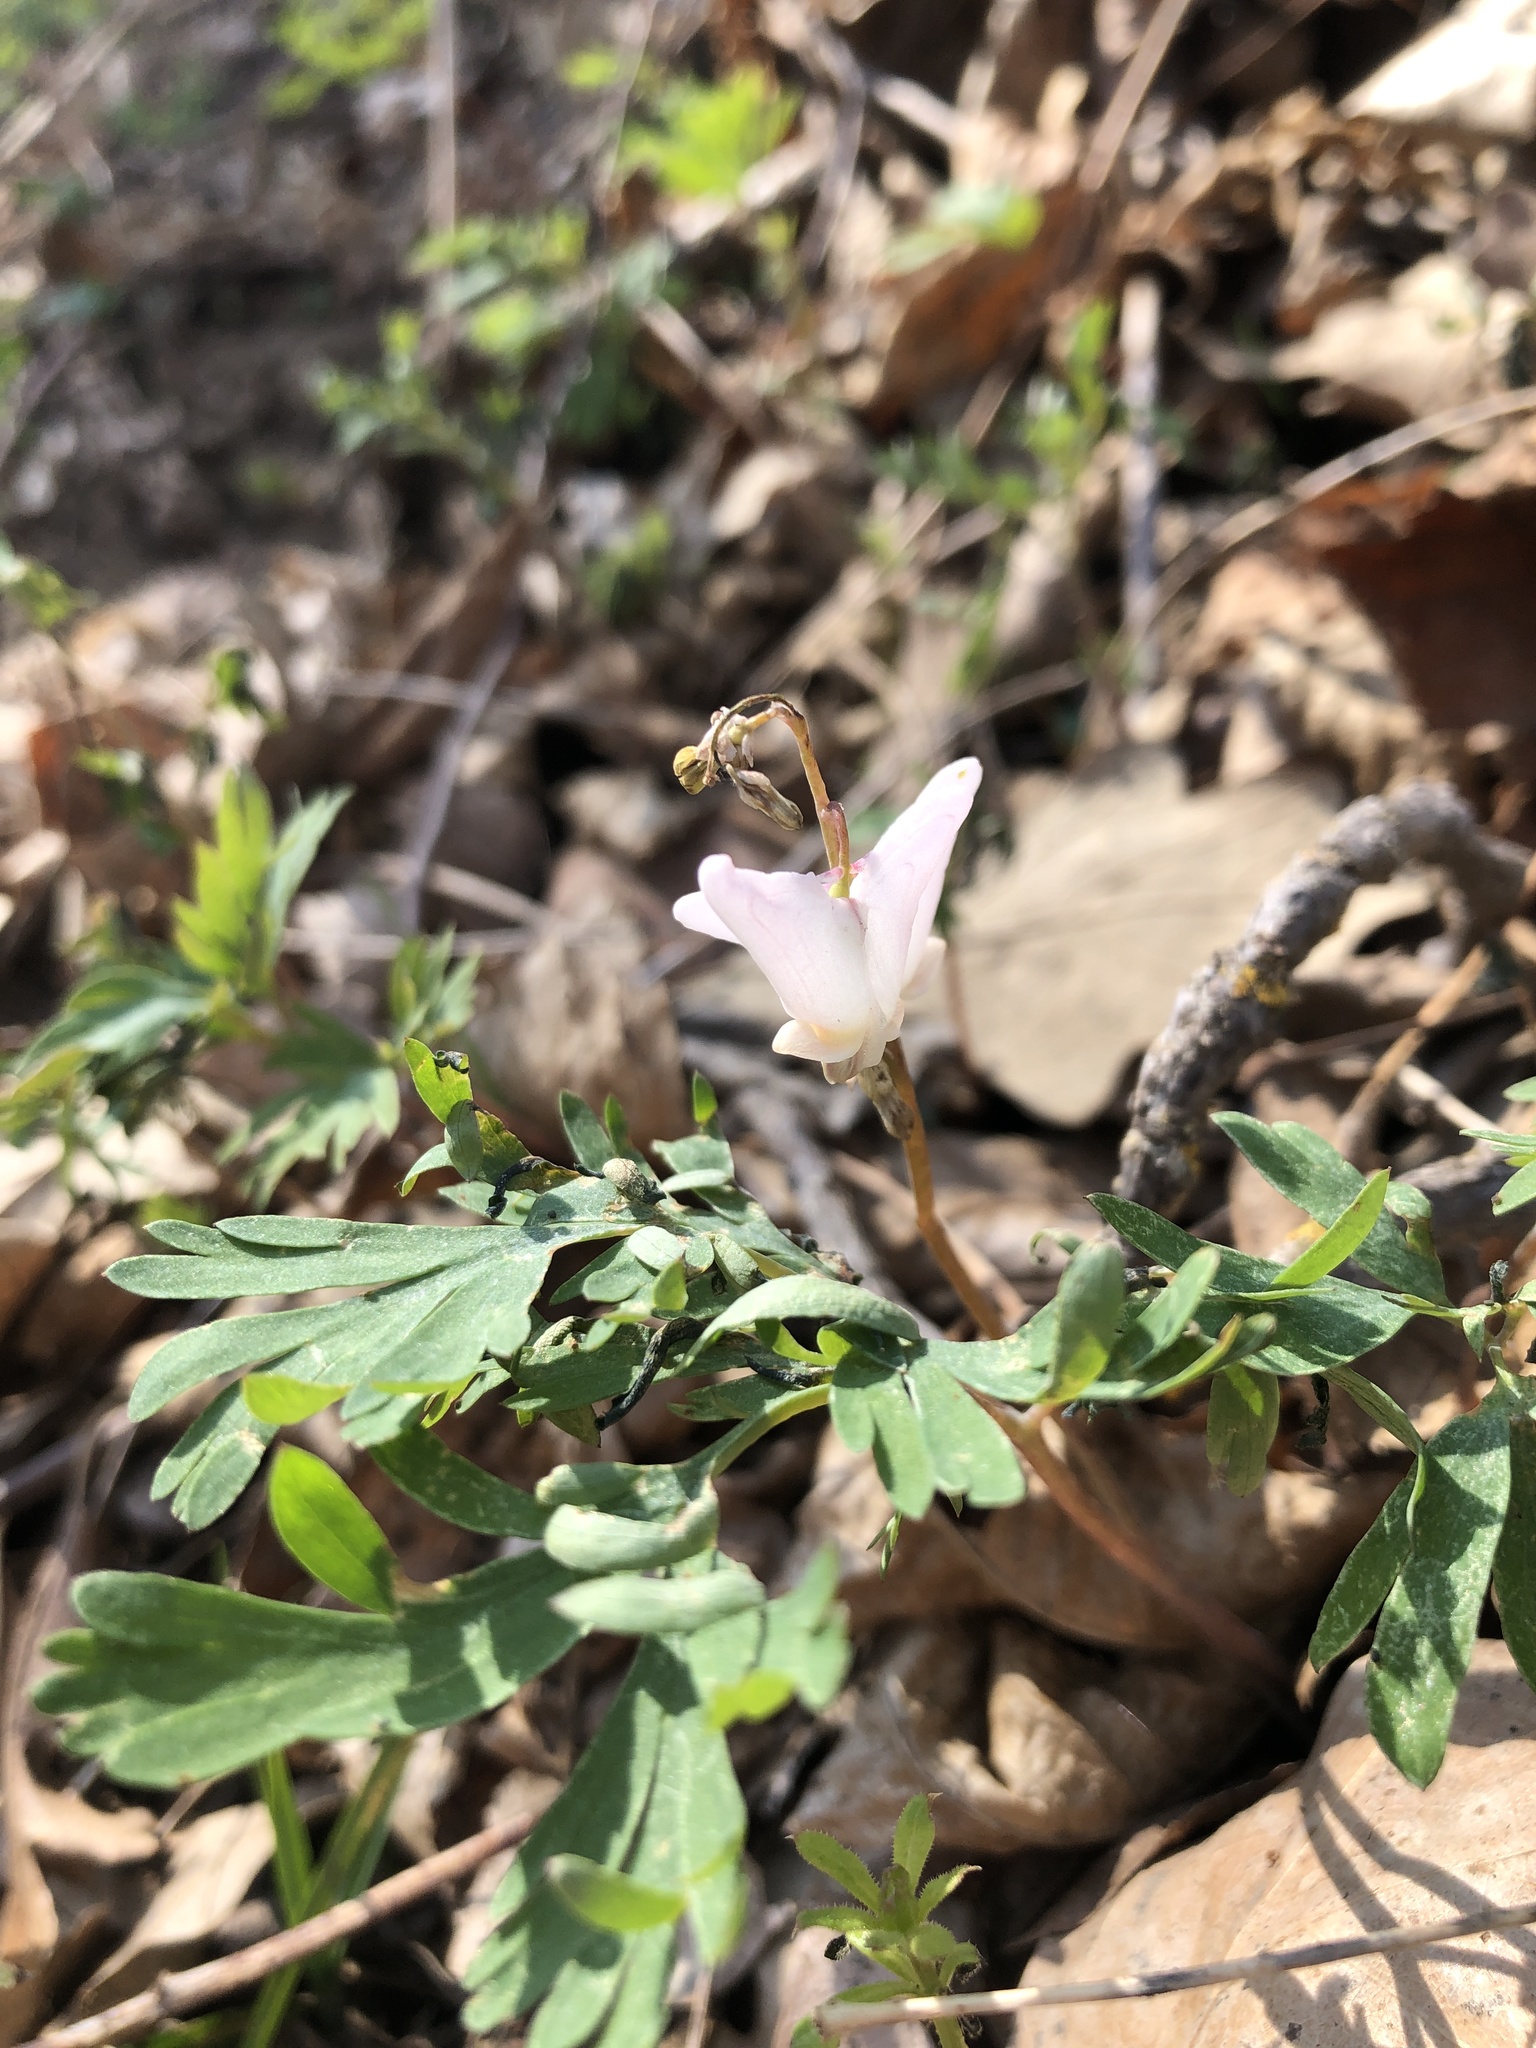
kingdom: Plantae
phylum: Tracheophyta
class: Magnoliopsida
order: Ranunculales
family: Papaveraceae
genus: Dicentra
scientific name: Dicentra cucullaria
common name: Dutchman's breeches
